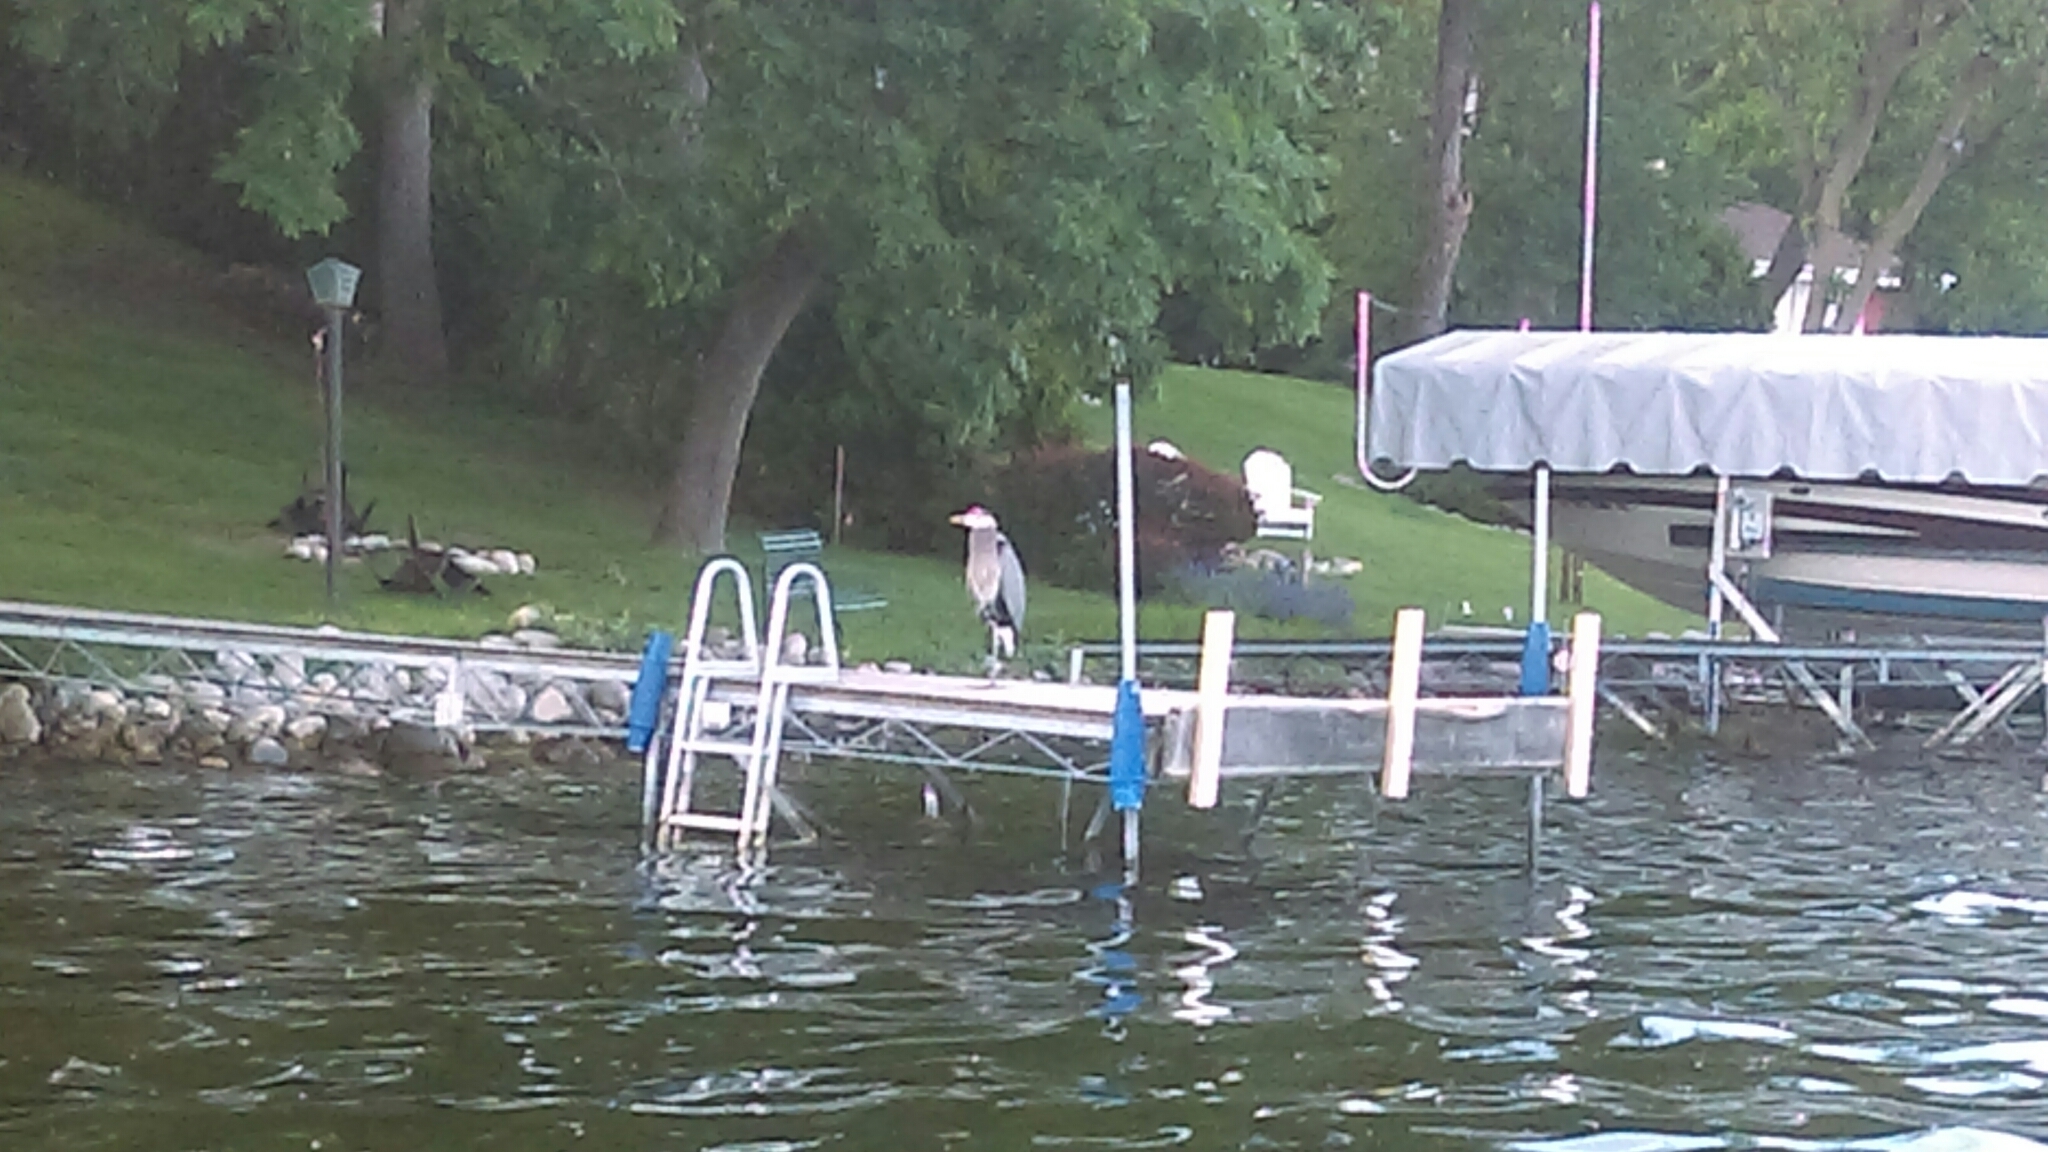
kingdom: Animalia
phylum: Chordata
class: Aves
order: Pelecaniformes
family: Ardeidae
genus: Ardea
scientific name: Ardea herodias
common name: Great blue heron
